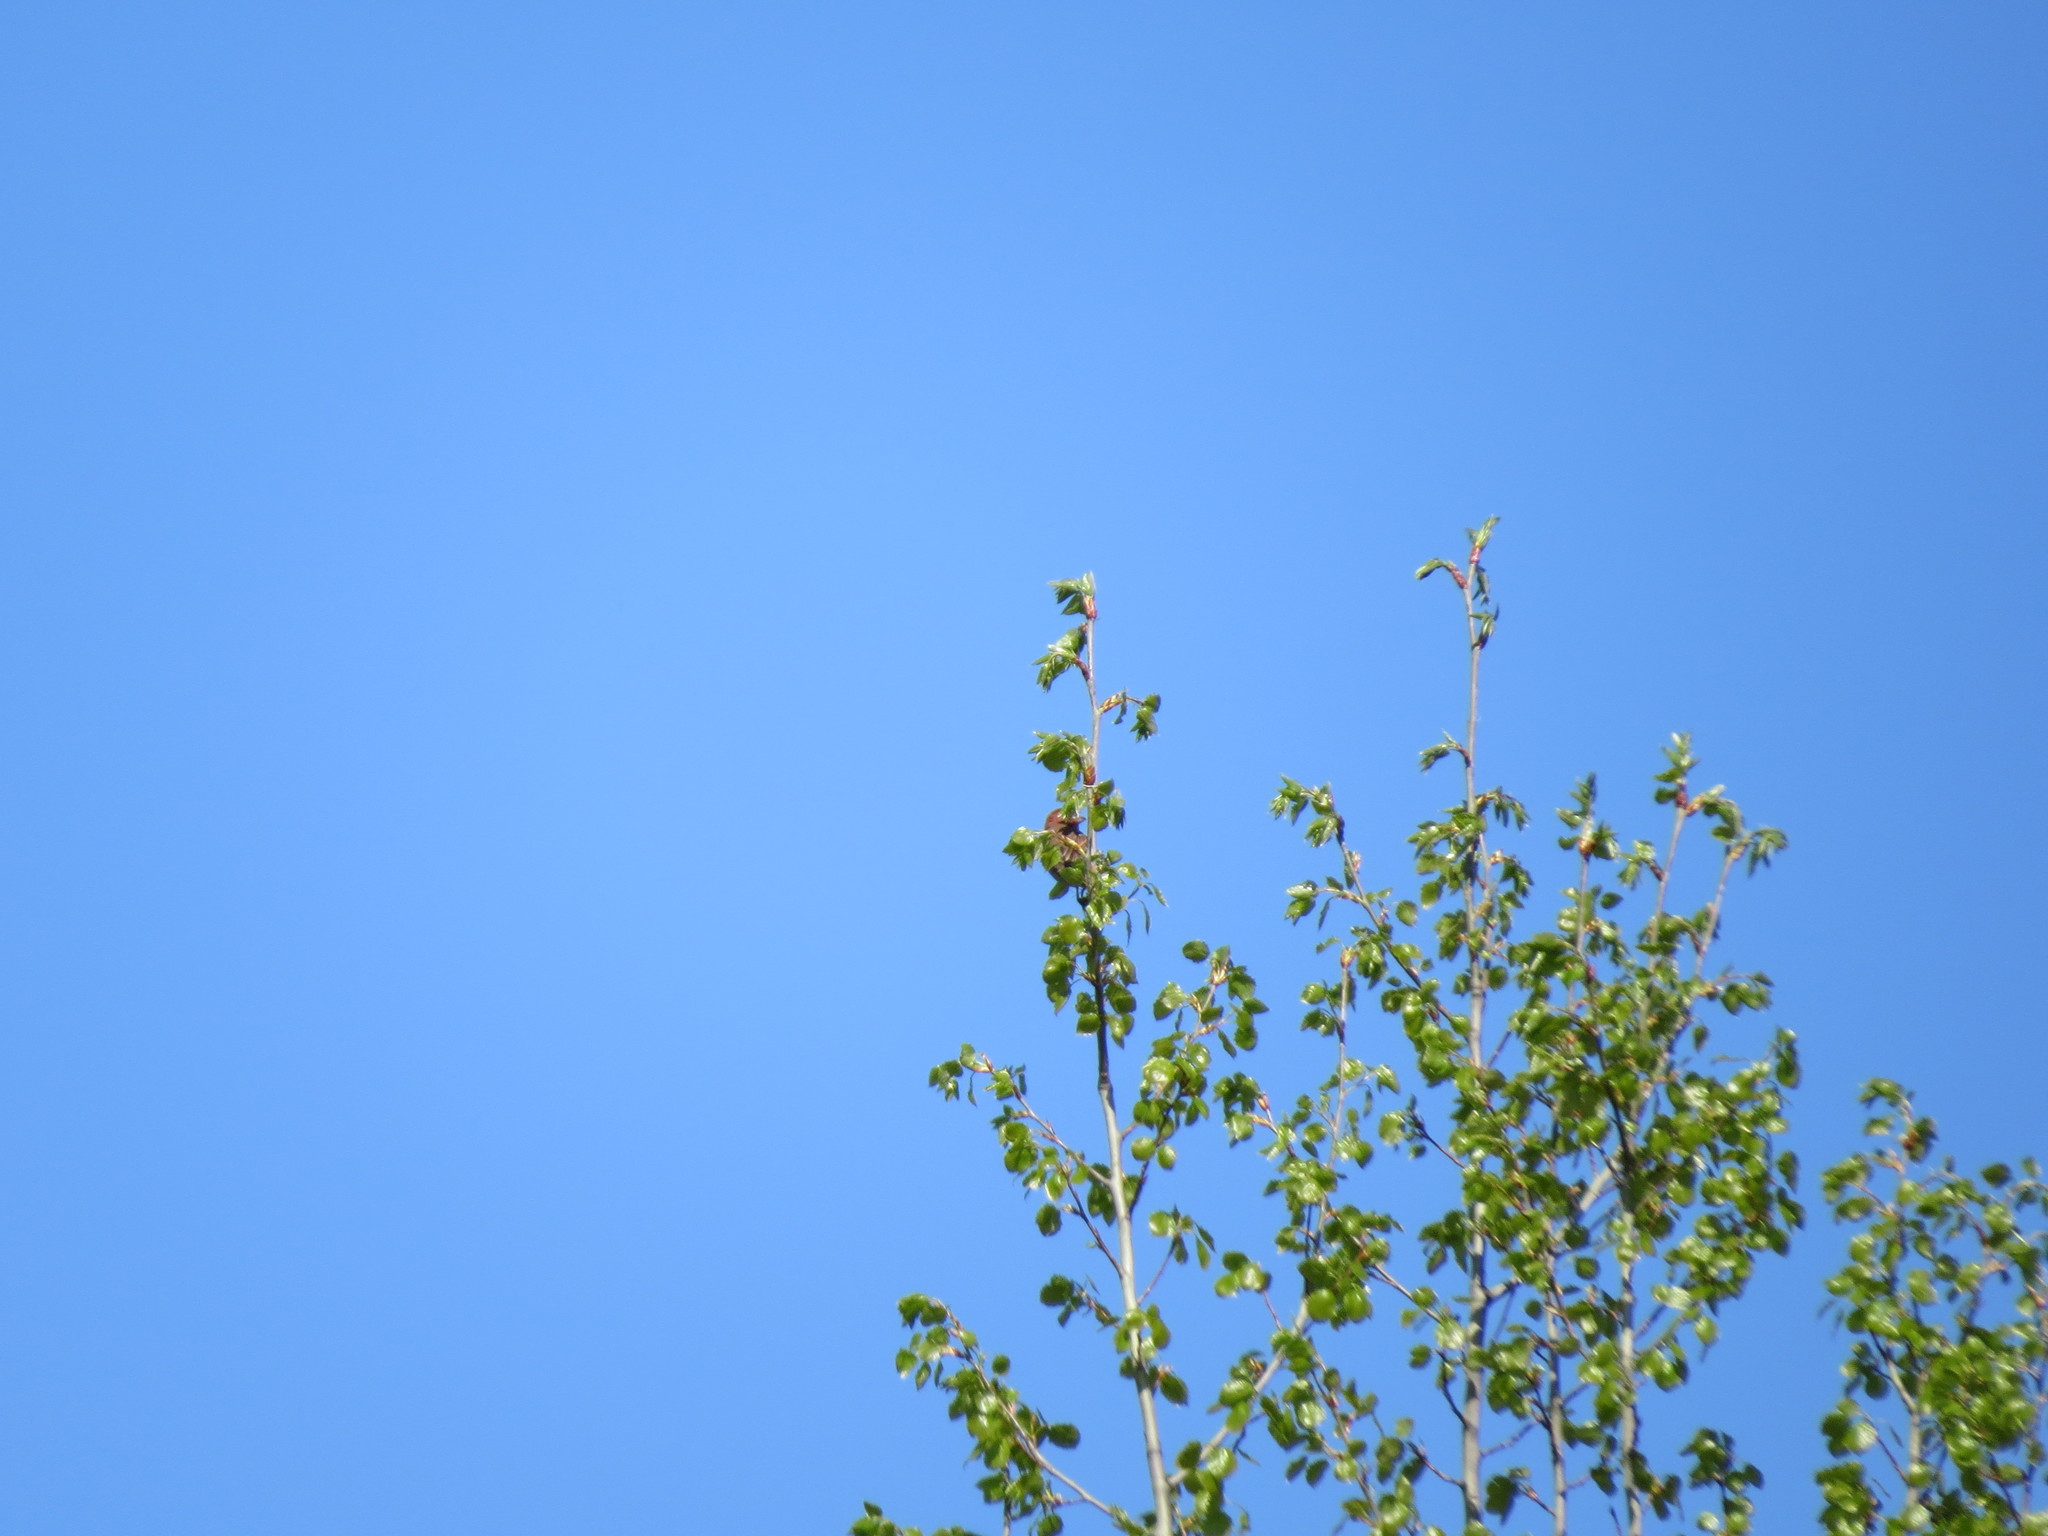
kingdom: Animalia
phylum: Chordata
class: Aves
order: Passeriformes
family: Fringillidae
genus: Carpodacus
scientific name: Carpodacus erythrinus
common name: Common rosefinch
